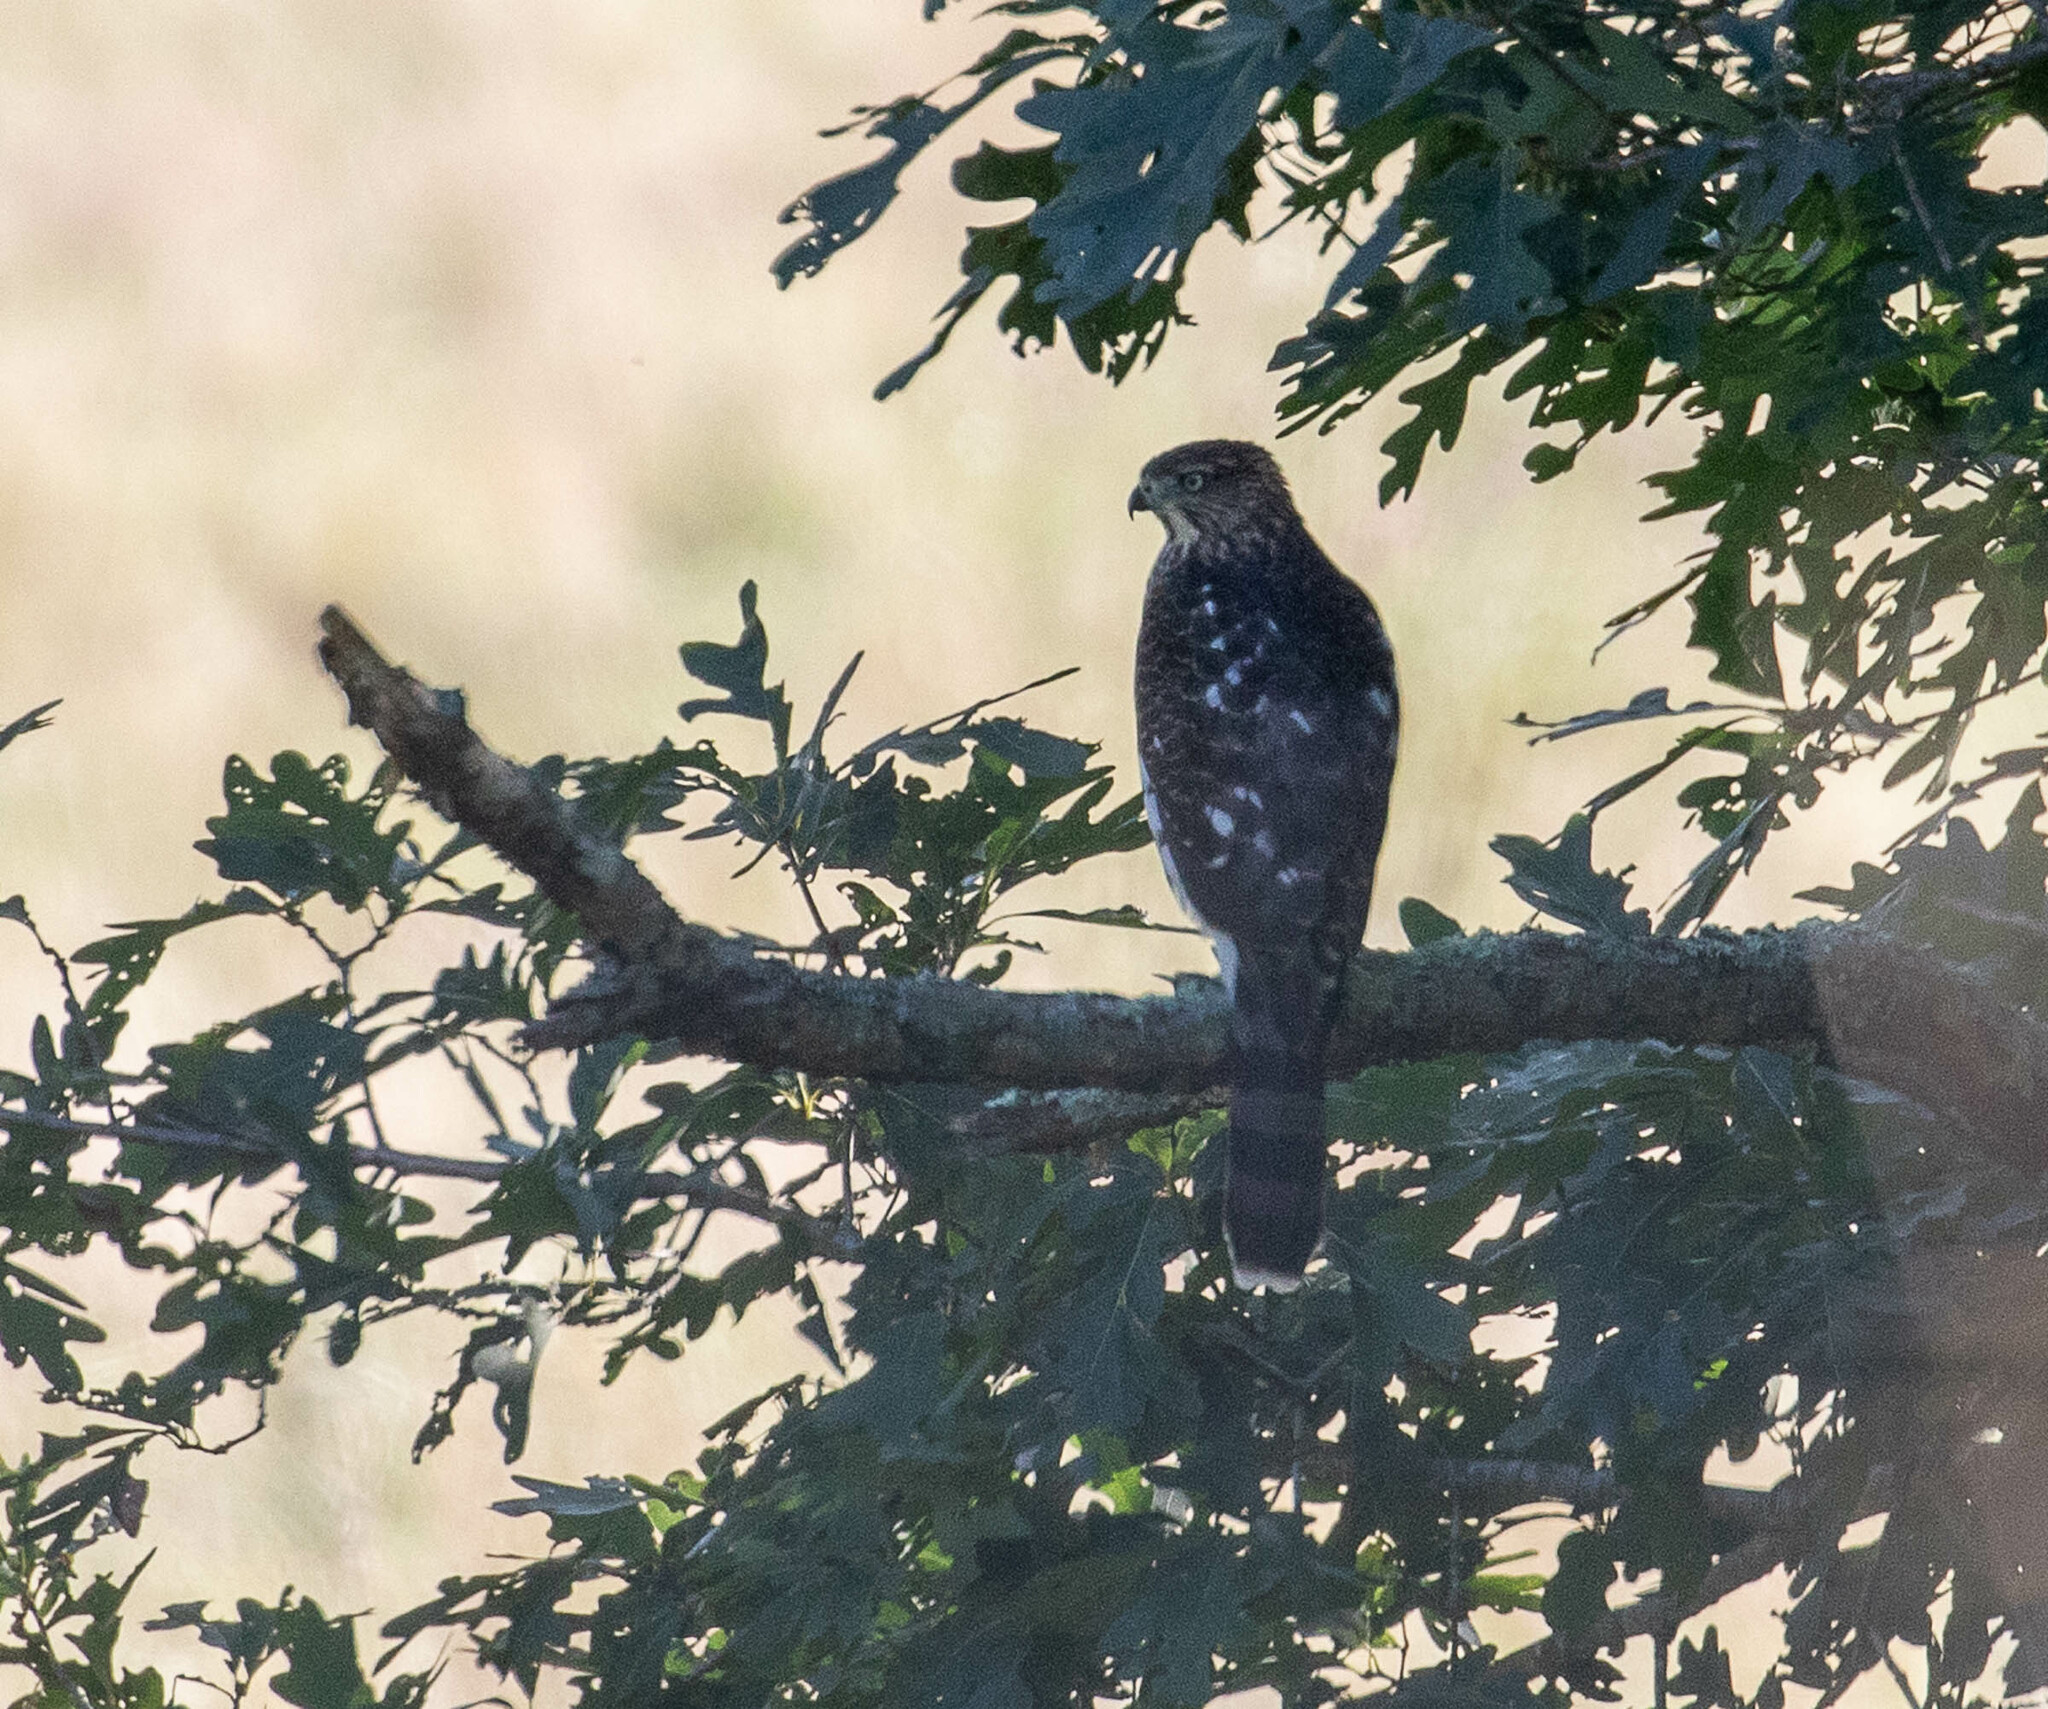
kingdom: Animalia
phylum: Chordata
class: Aves
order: Accipitriformes
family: Accipitridae
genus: Accipiter
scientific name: Accipiter cooperii
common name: Cooper's hawk
